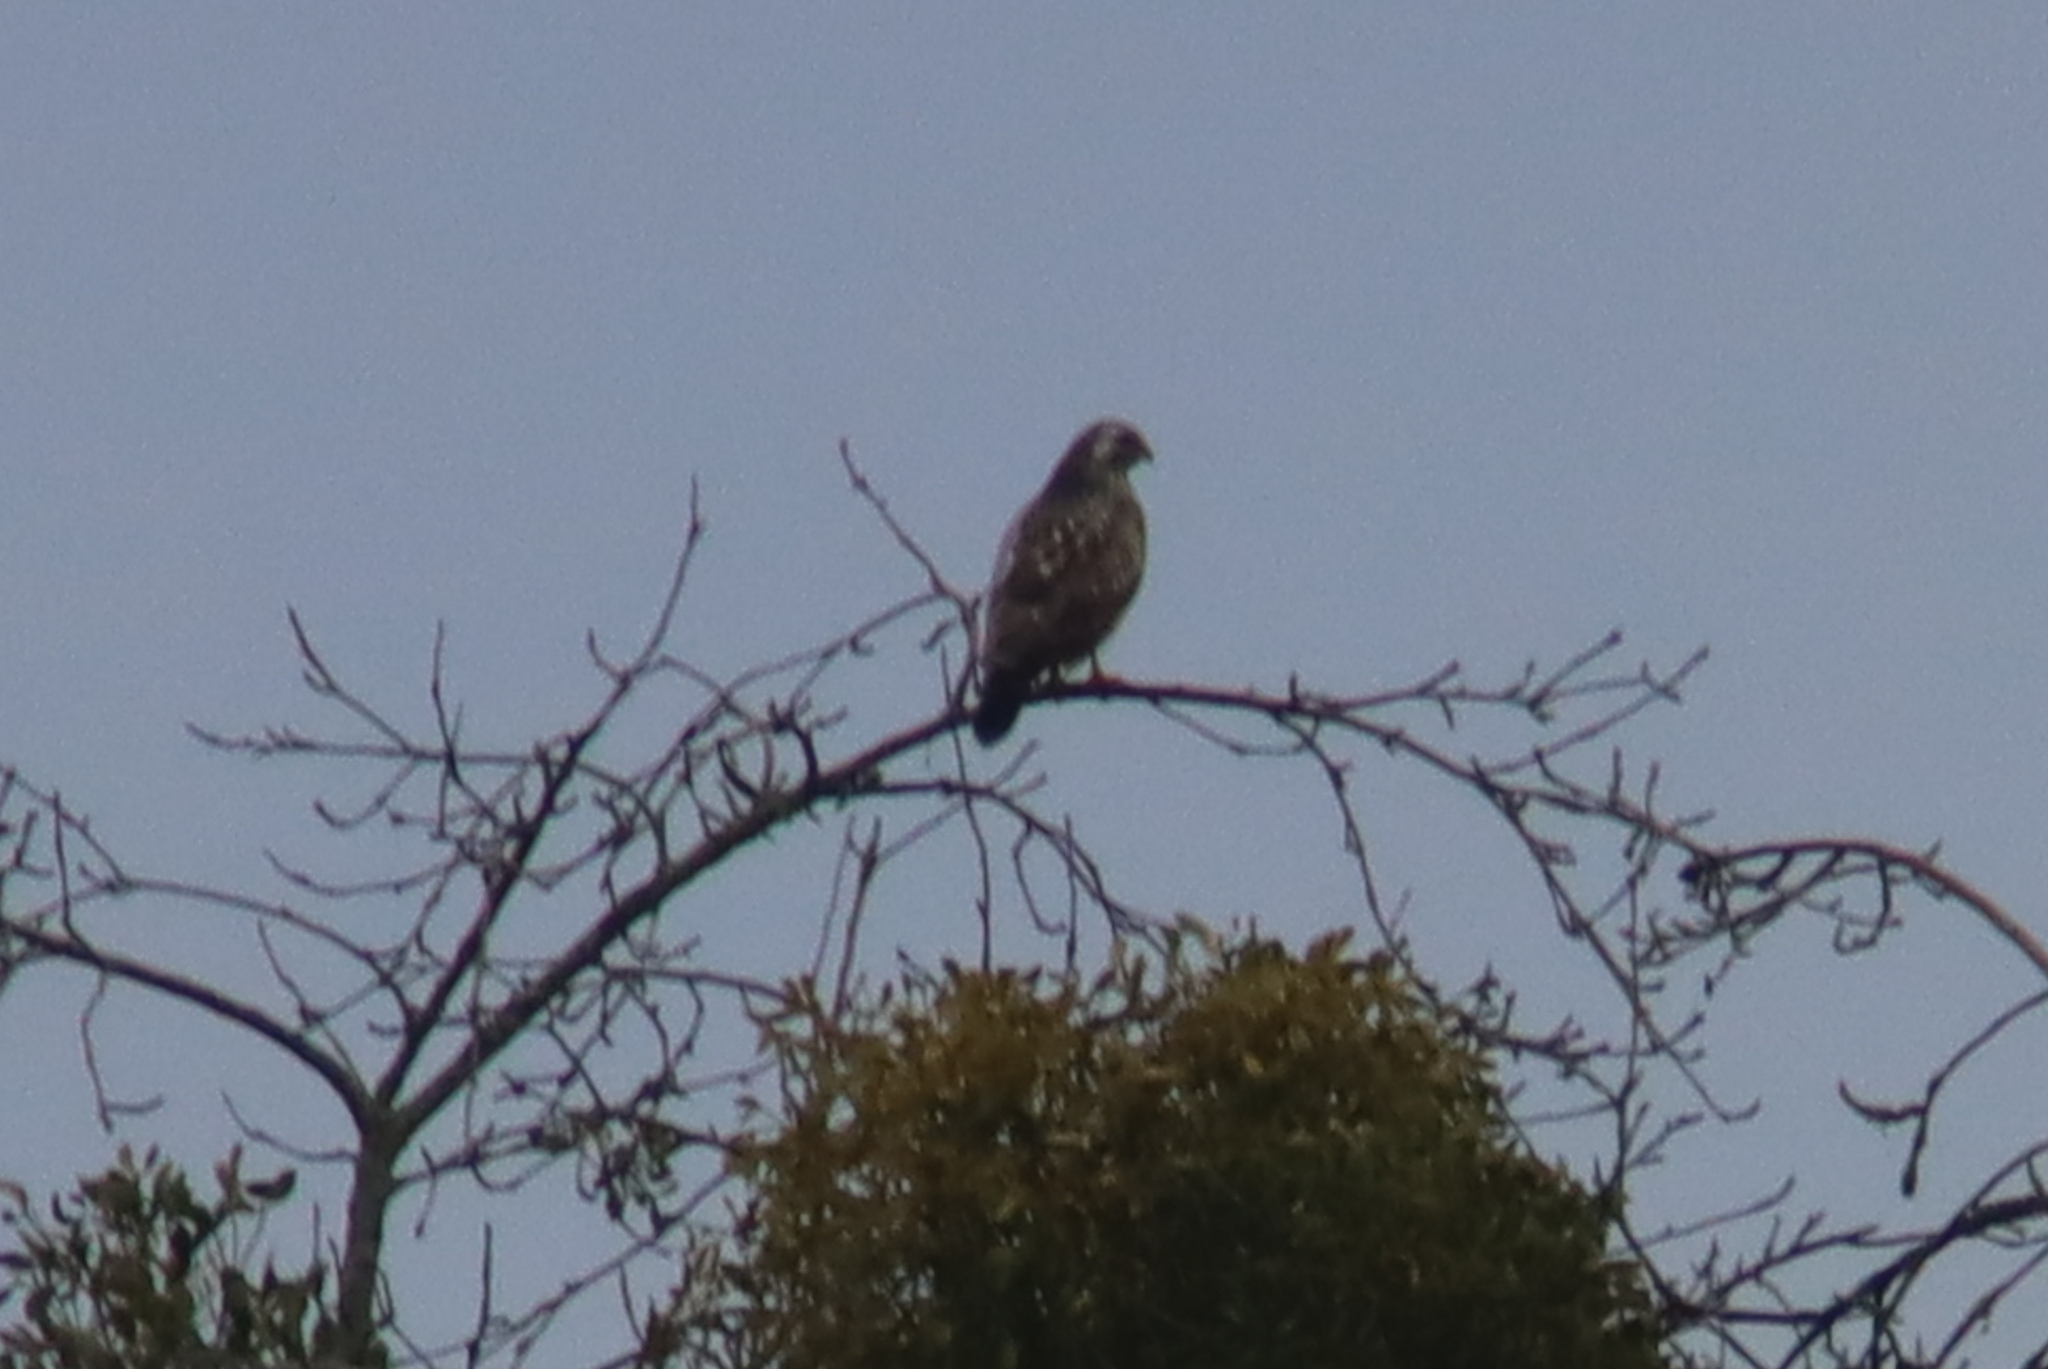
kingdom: Animalia
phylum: Chordata
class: Aves
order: Accipitriformes
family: Accipitridae
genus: Buteo
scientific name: Buteo buteo
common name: Common buzzard
